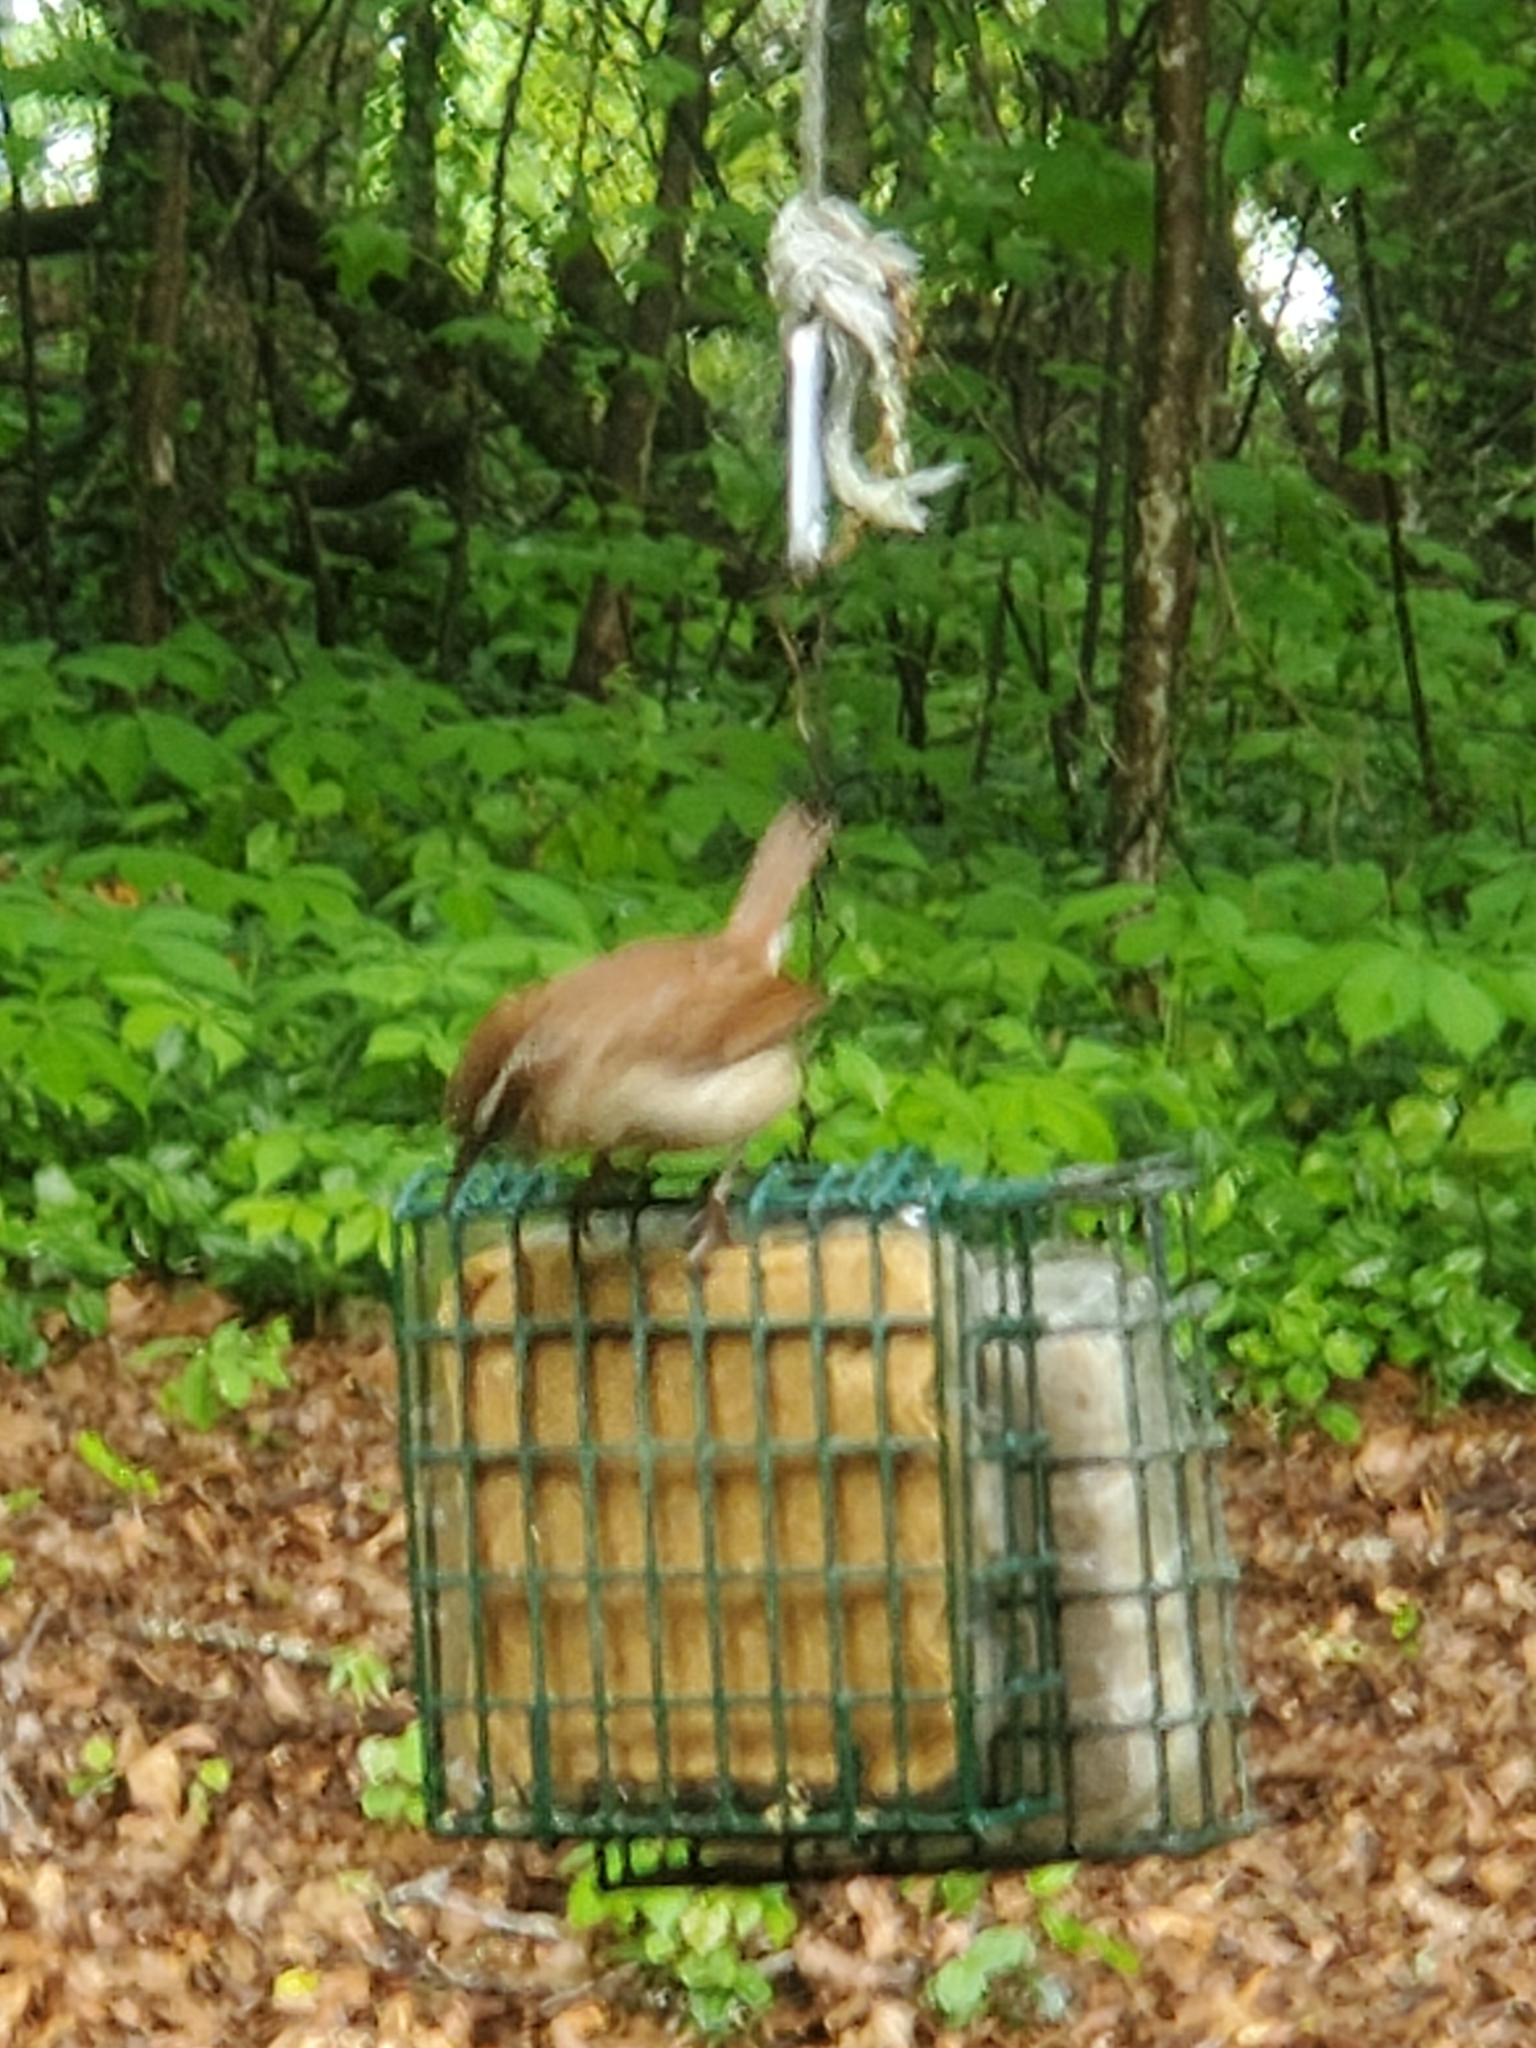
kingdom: Animalia
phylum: Chordata
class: Aves
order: Passeriformes
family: Troglodytidae
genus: Thryothorus
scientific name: Thryothorus ludovicianus
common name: Carolina wren
